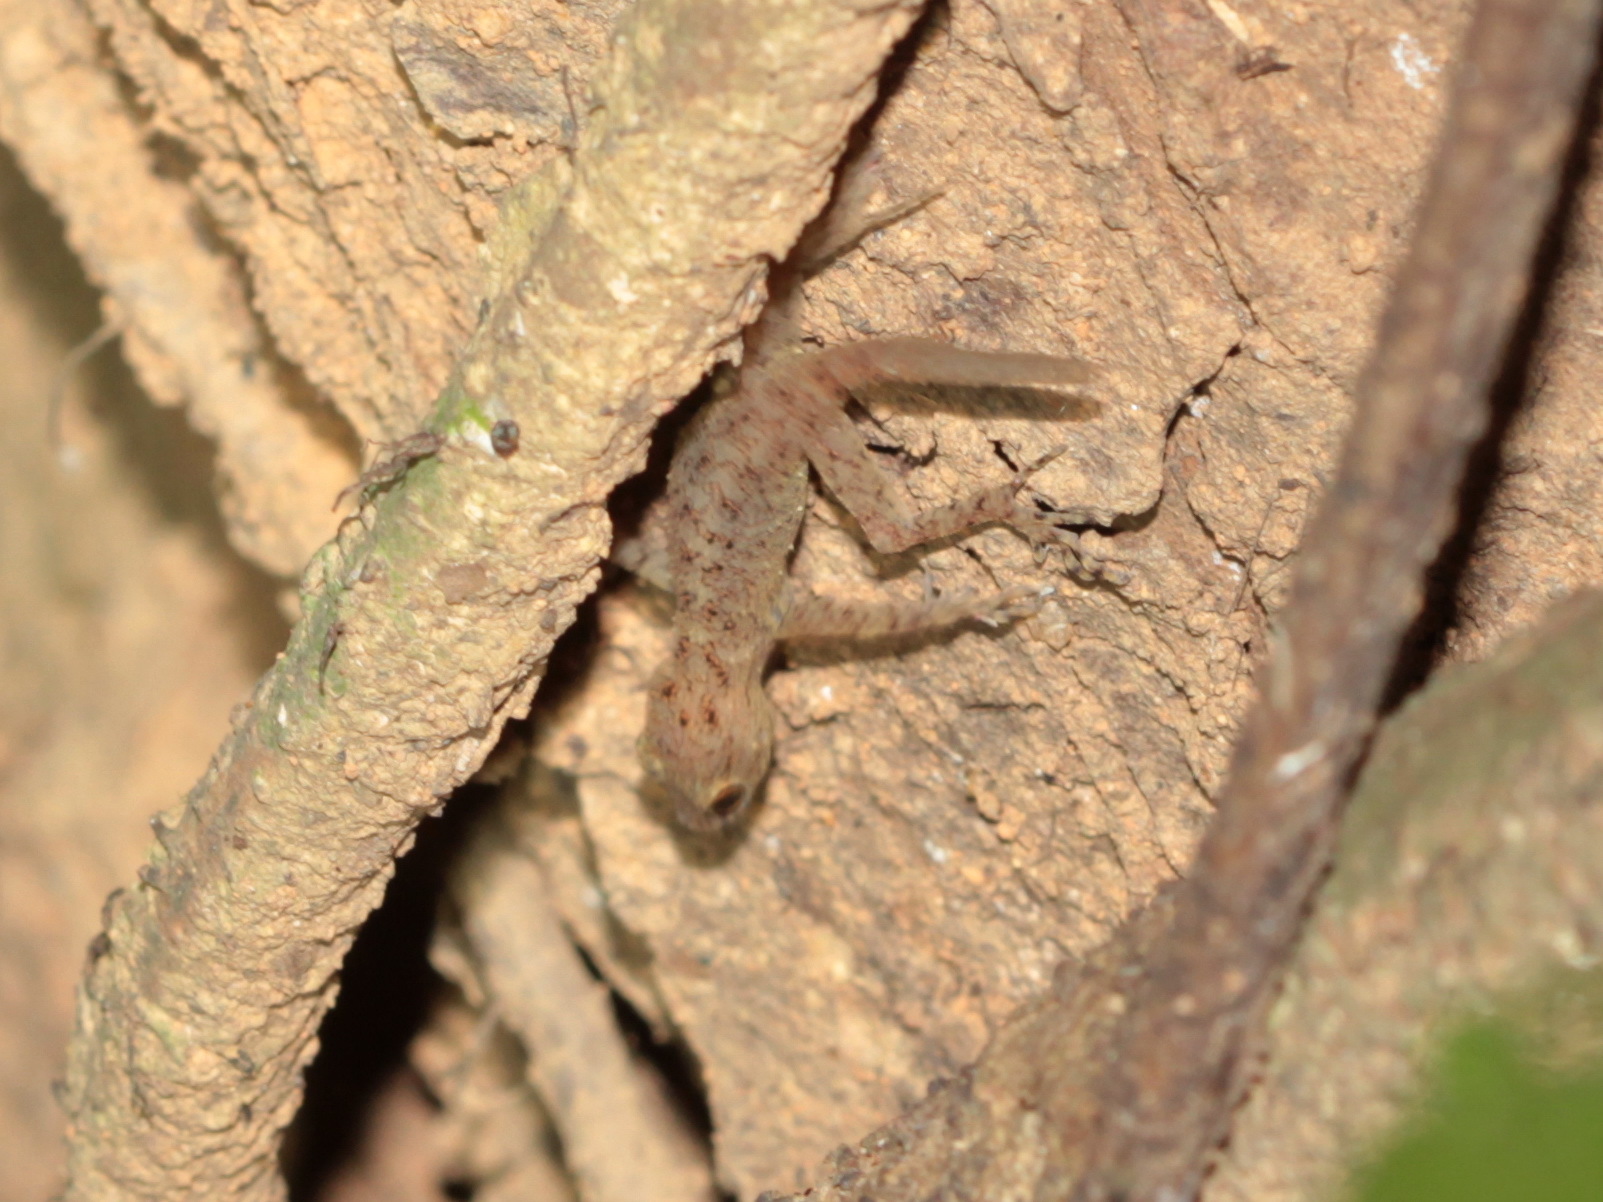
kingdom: Animalia
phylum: Chordata
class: Squamata
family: Gekkonidae
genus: Cnemaspis
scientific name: Cnemaspis vandeventeri
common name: Van deventer’s rock gecko
